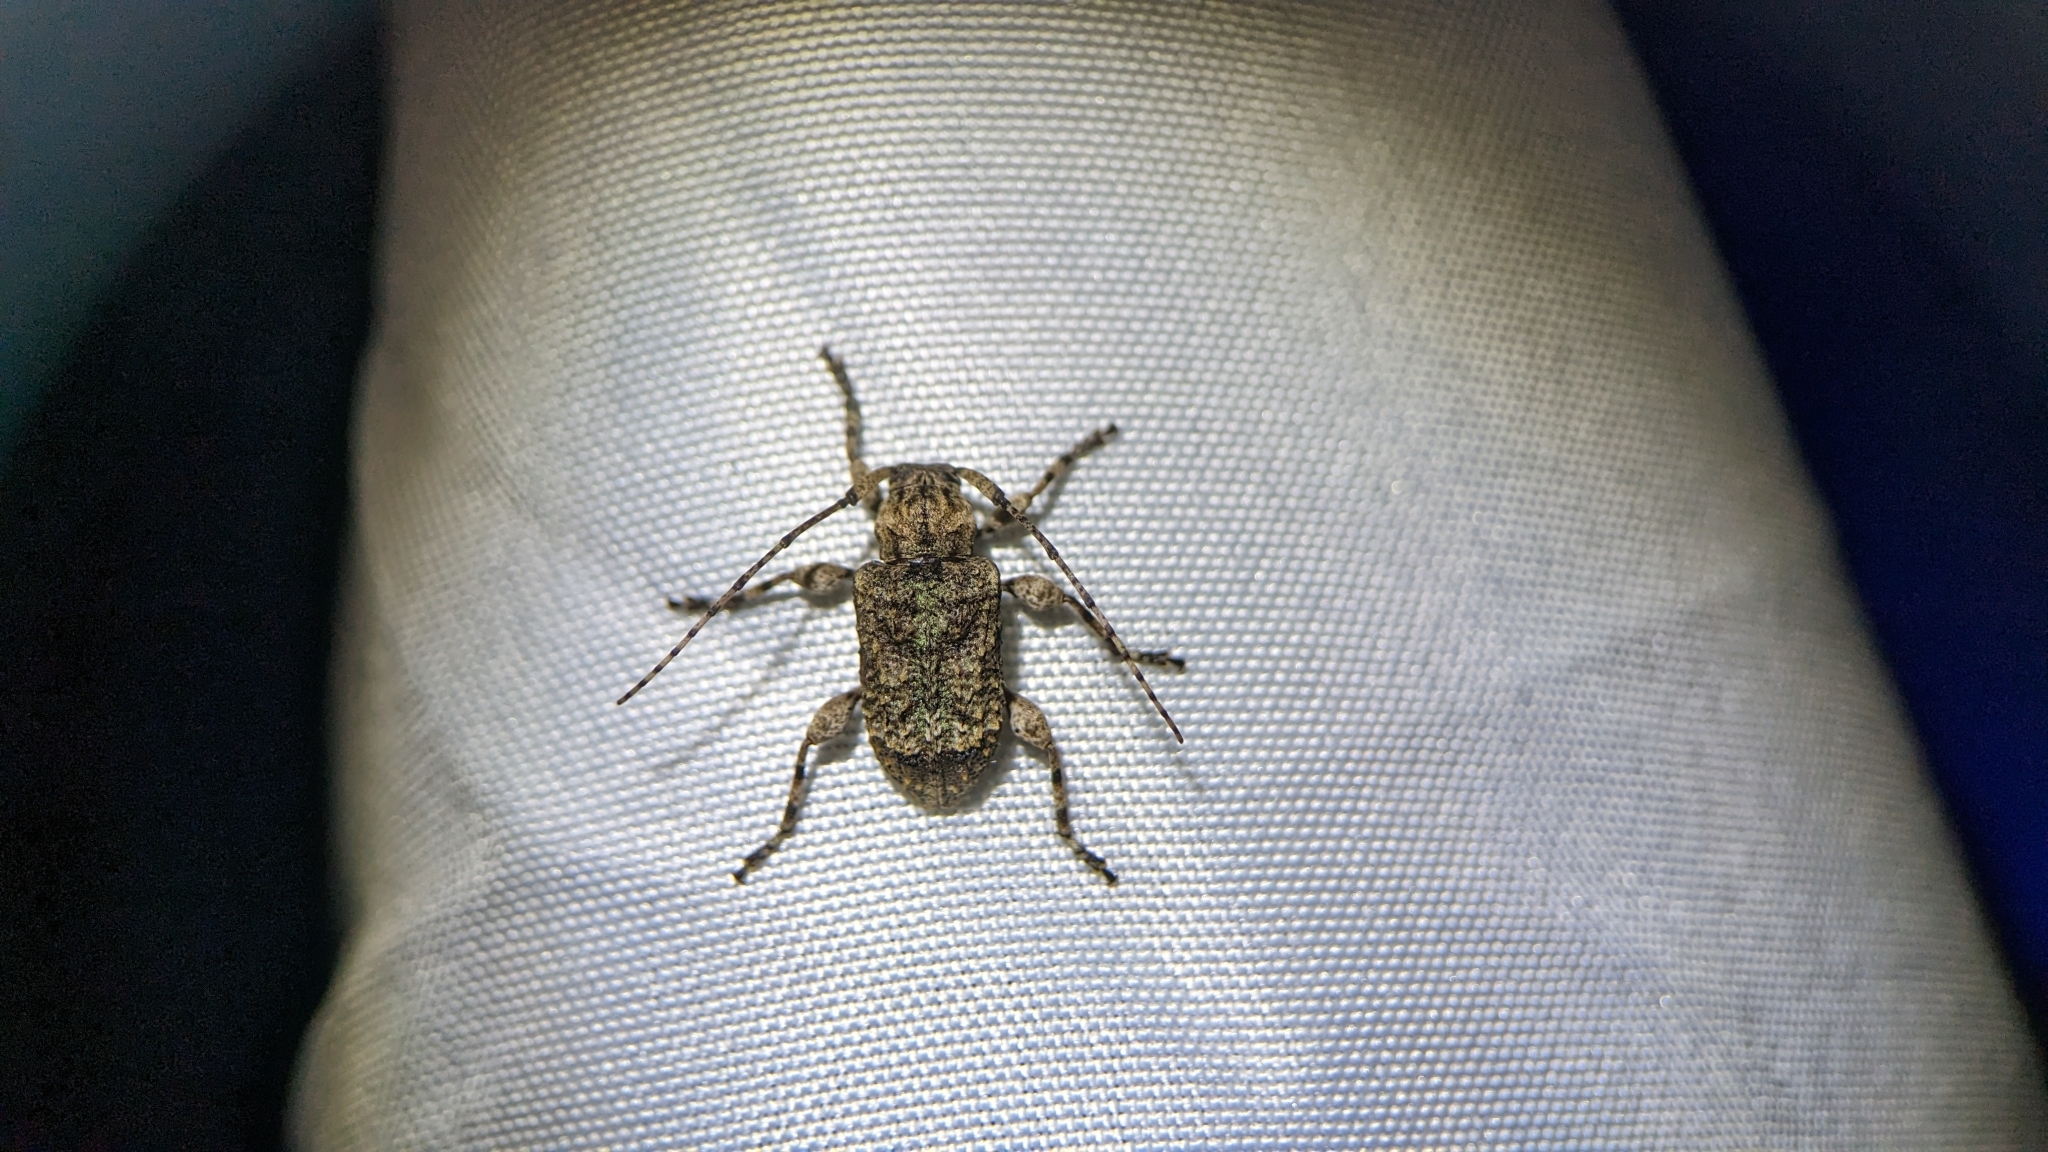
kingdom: Animalia
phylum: Arthropoda
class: Insecta
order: Coleoptera
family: Cerambycidae
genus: Leptostylus
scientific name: Leptostylus transversus
